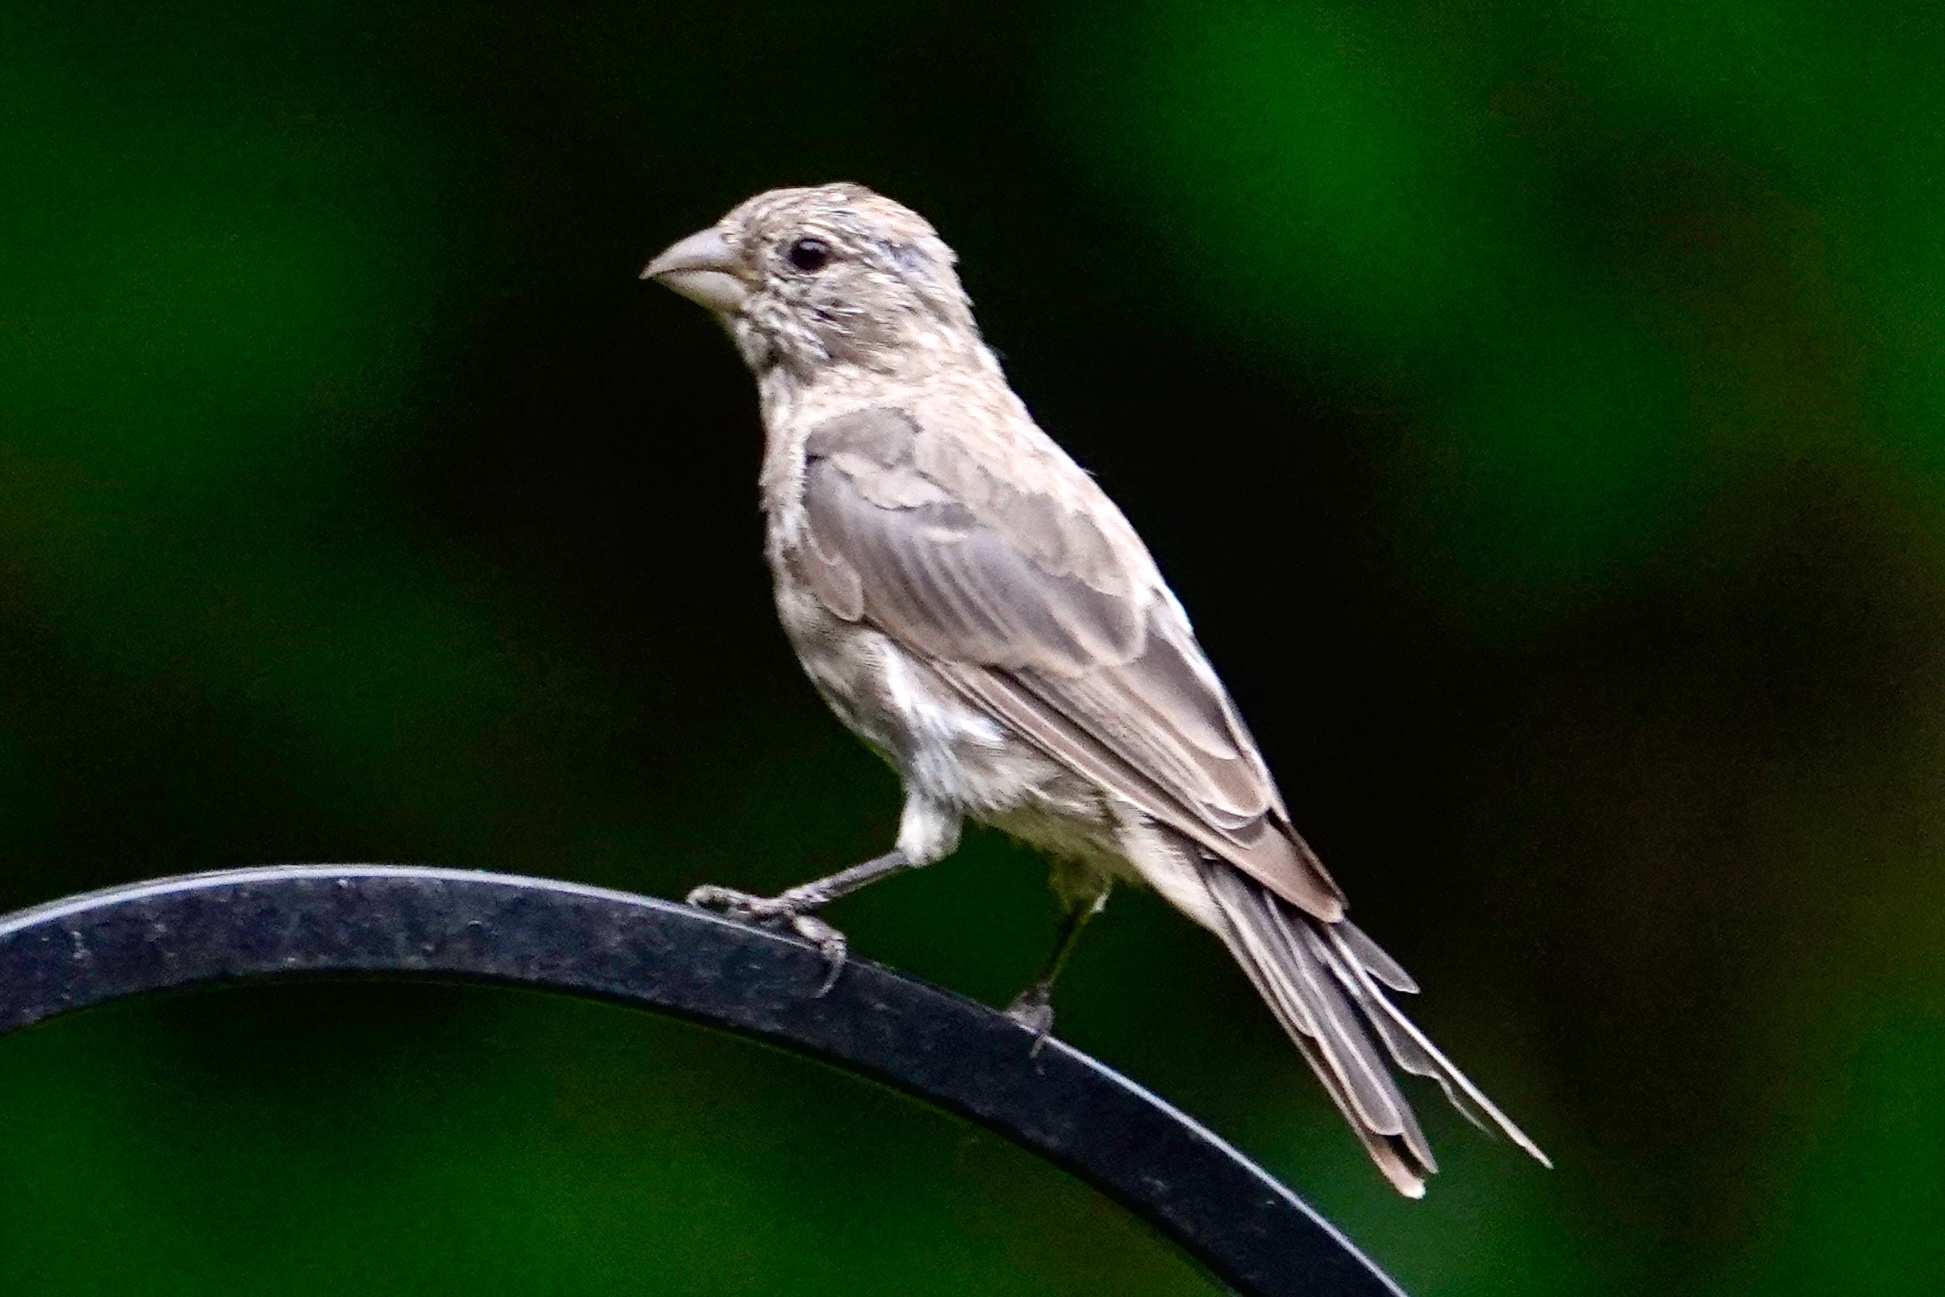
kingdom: Animalia
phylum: Chordata
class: Aves
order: Passeriformes
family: Fringillidae
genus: Haemorhous
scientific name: Haemorhous mexicanus
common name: House finch
